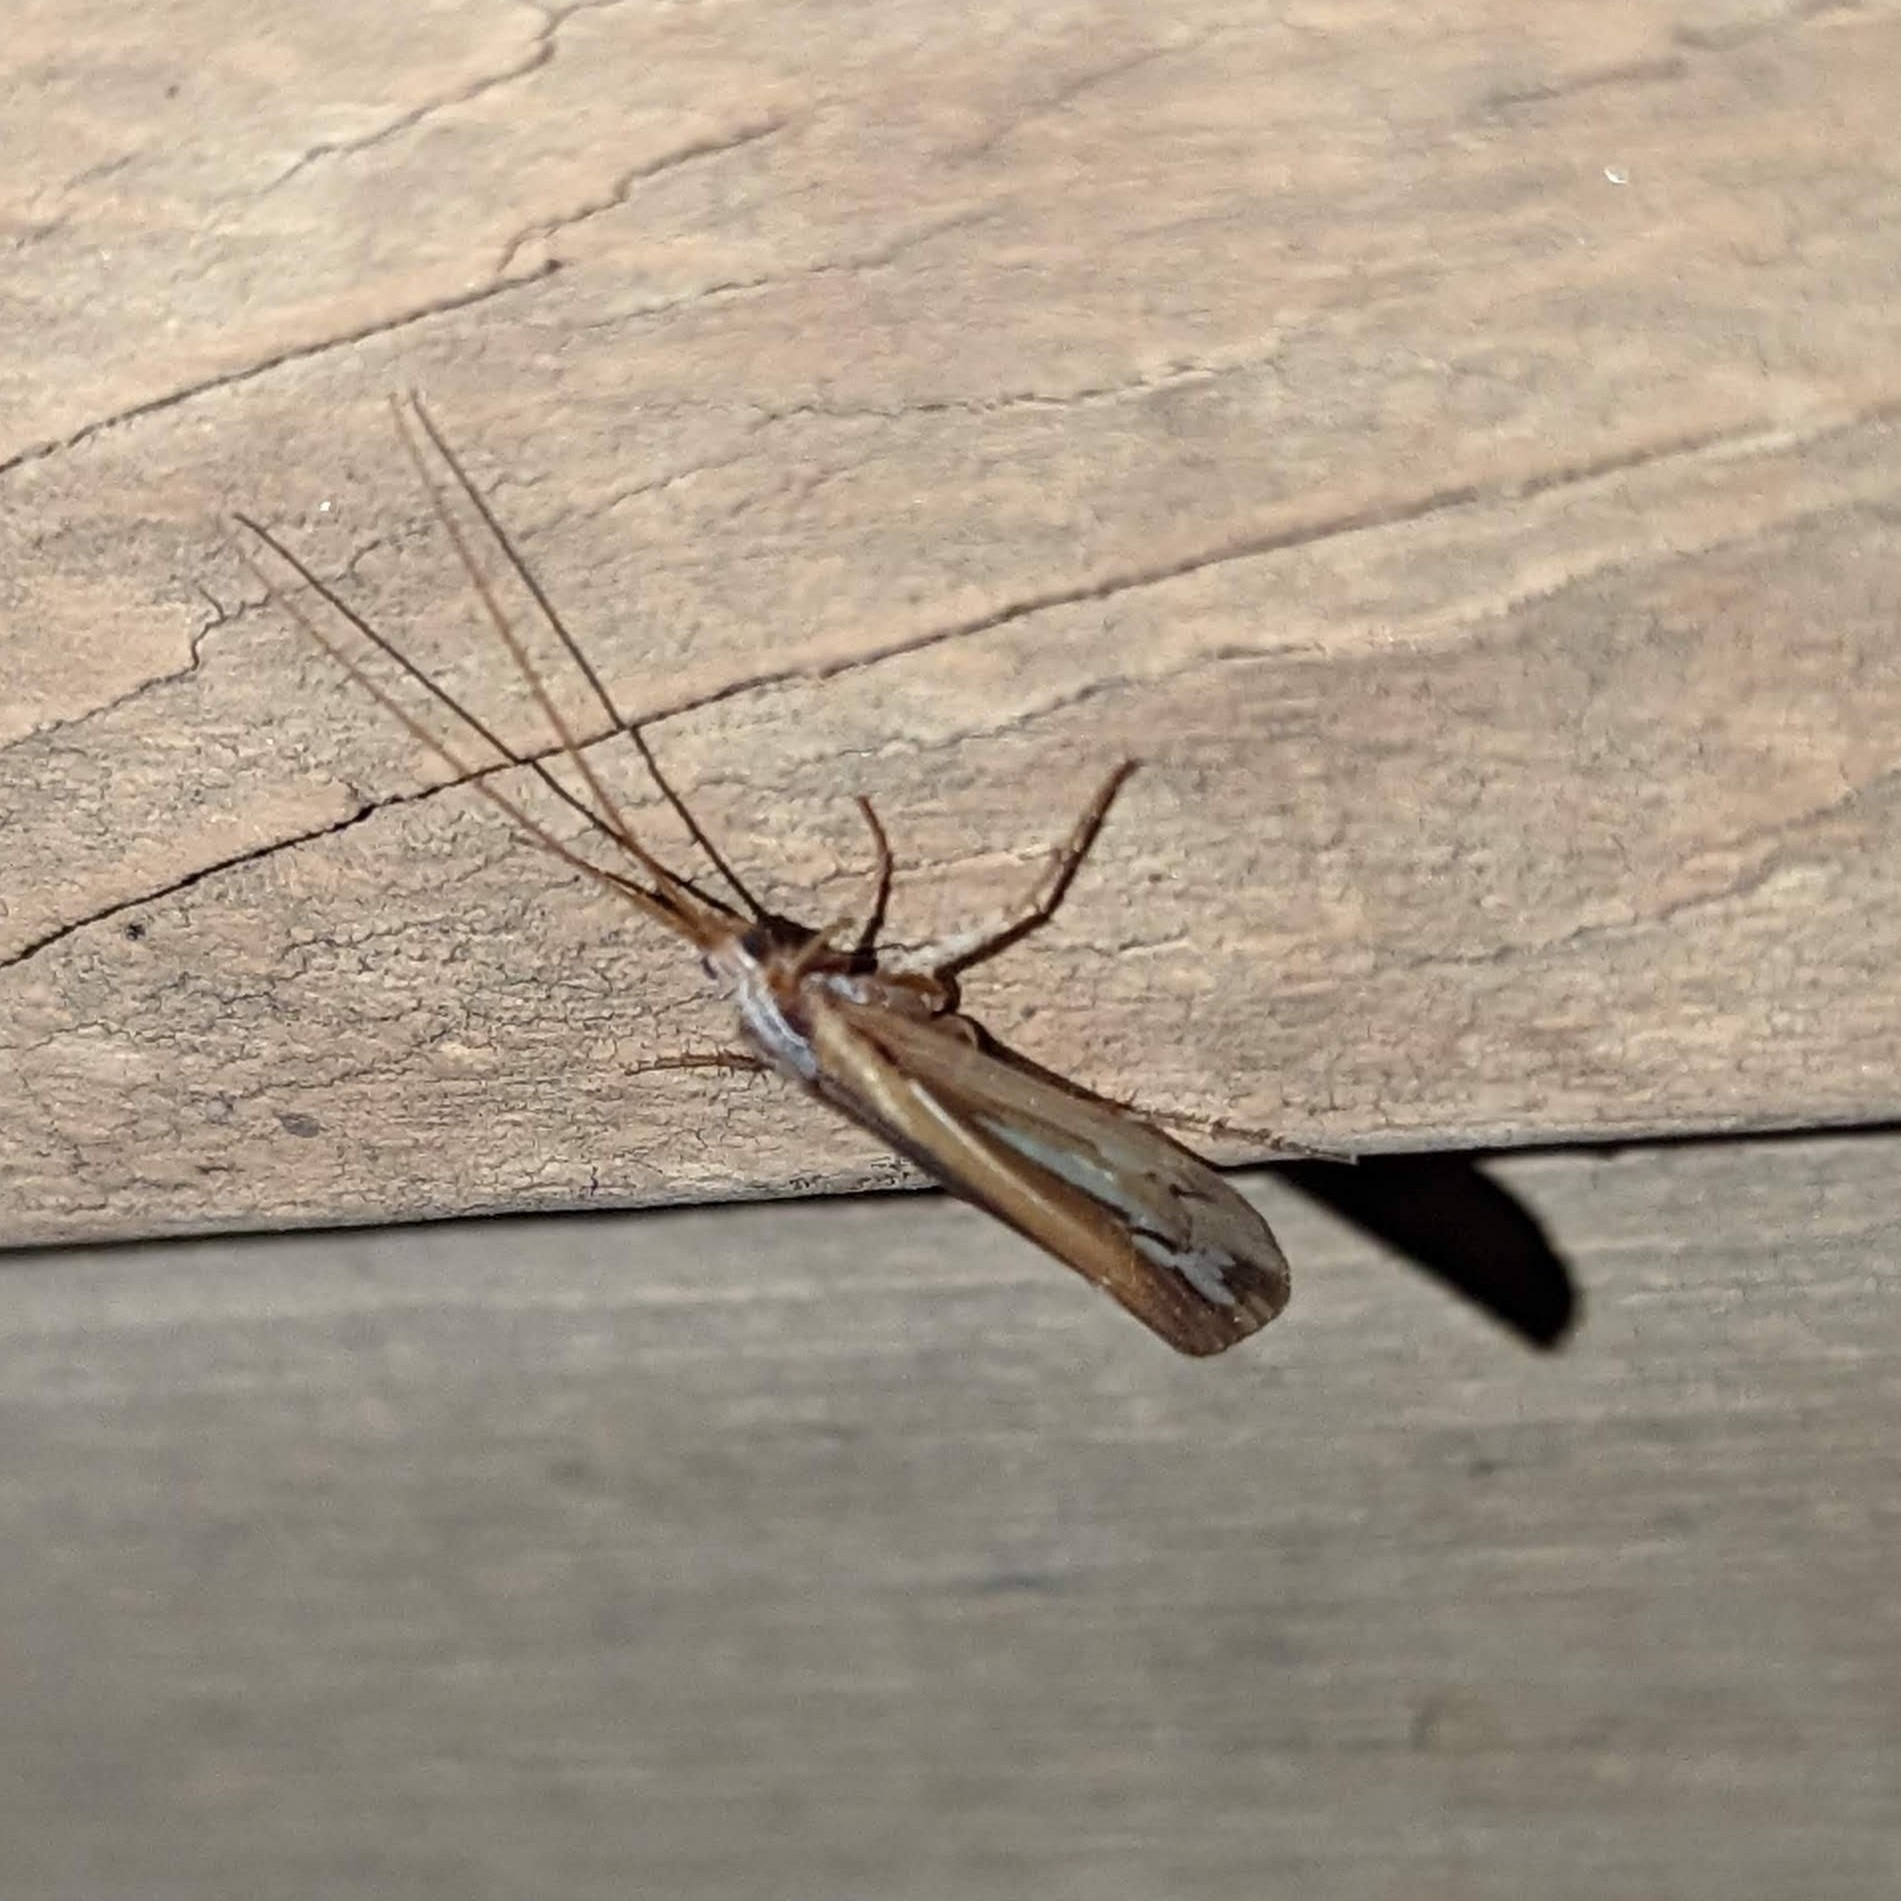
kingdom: Animalia
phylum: Arthropoda
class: Insecta
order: Trichoptera
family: Limnephilidae
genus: Limnephilus
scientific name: Limnephilus ornatus
